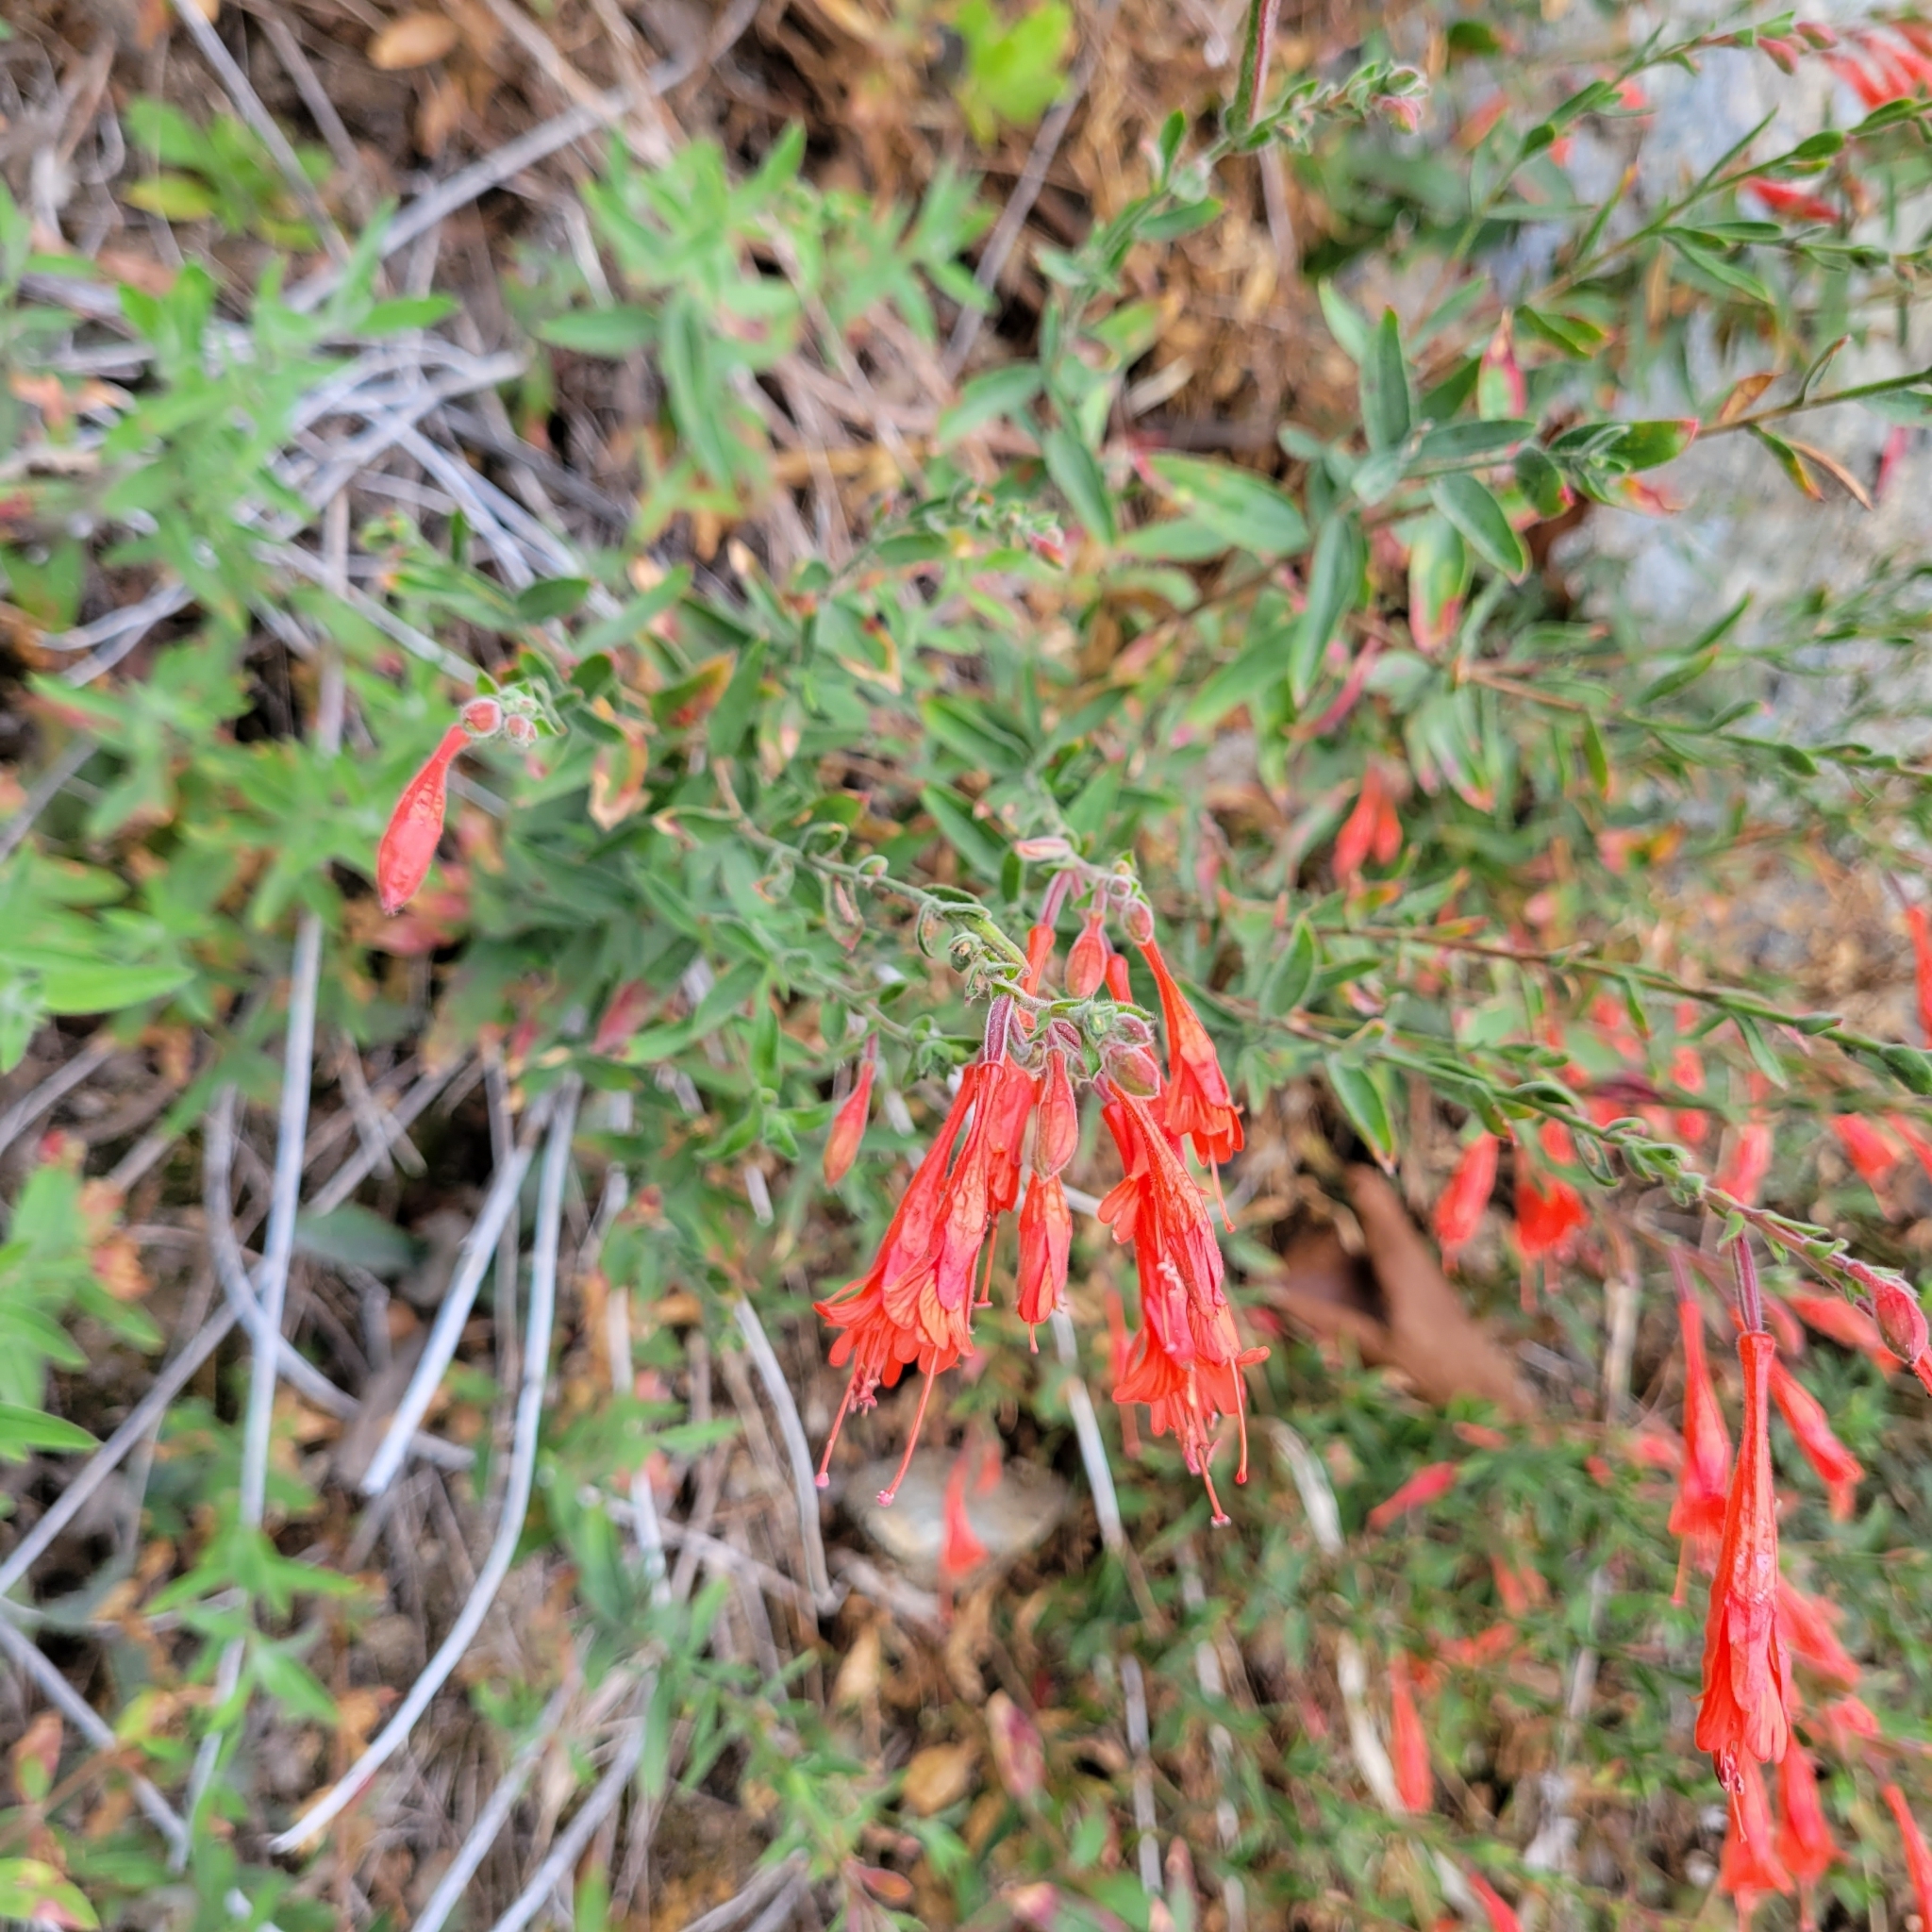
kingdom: Plantae
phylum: Tracheophyta
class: Magnoliopsida
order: Myrtales
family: Onagraceae
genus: Epilobium
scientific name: Epilobium canum
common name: California-fuchsia
